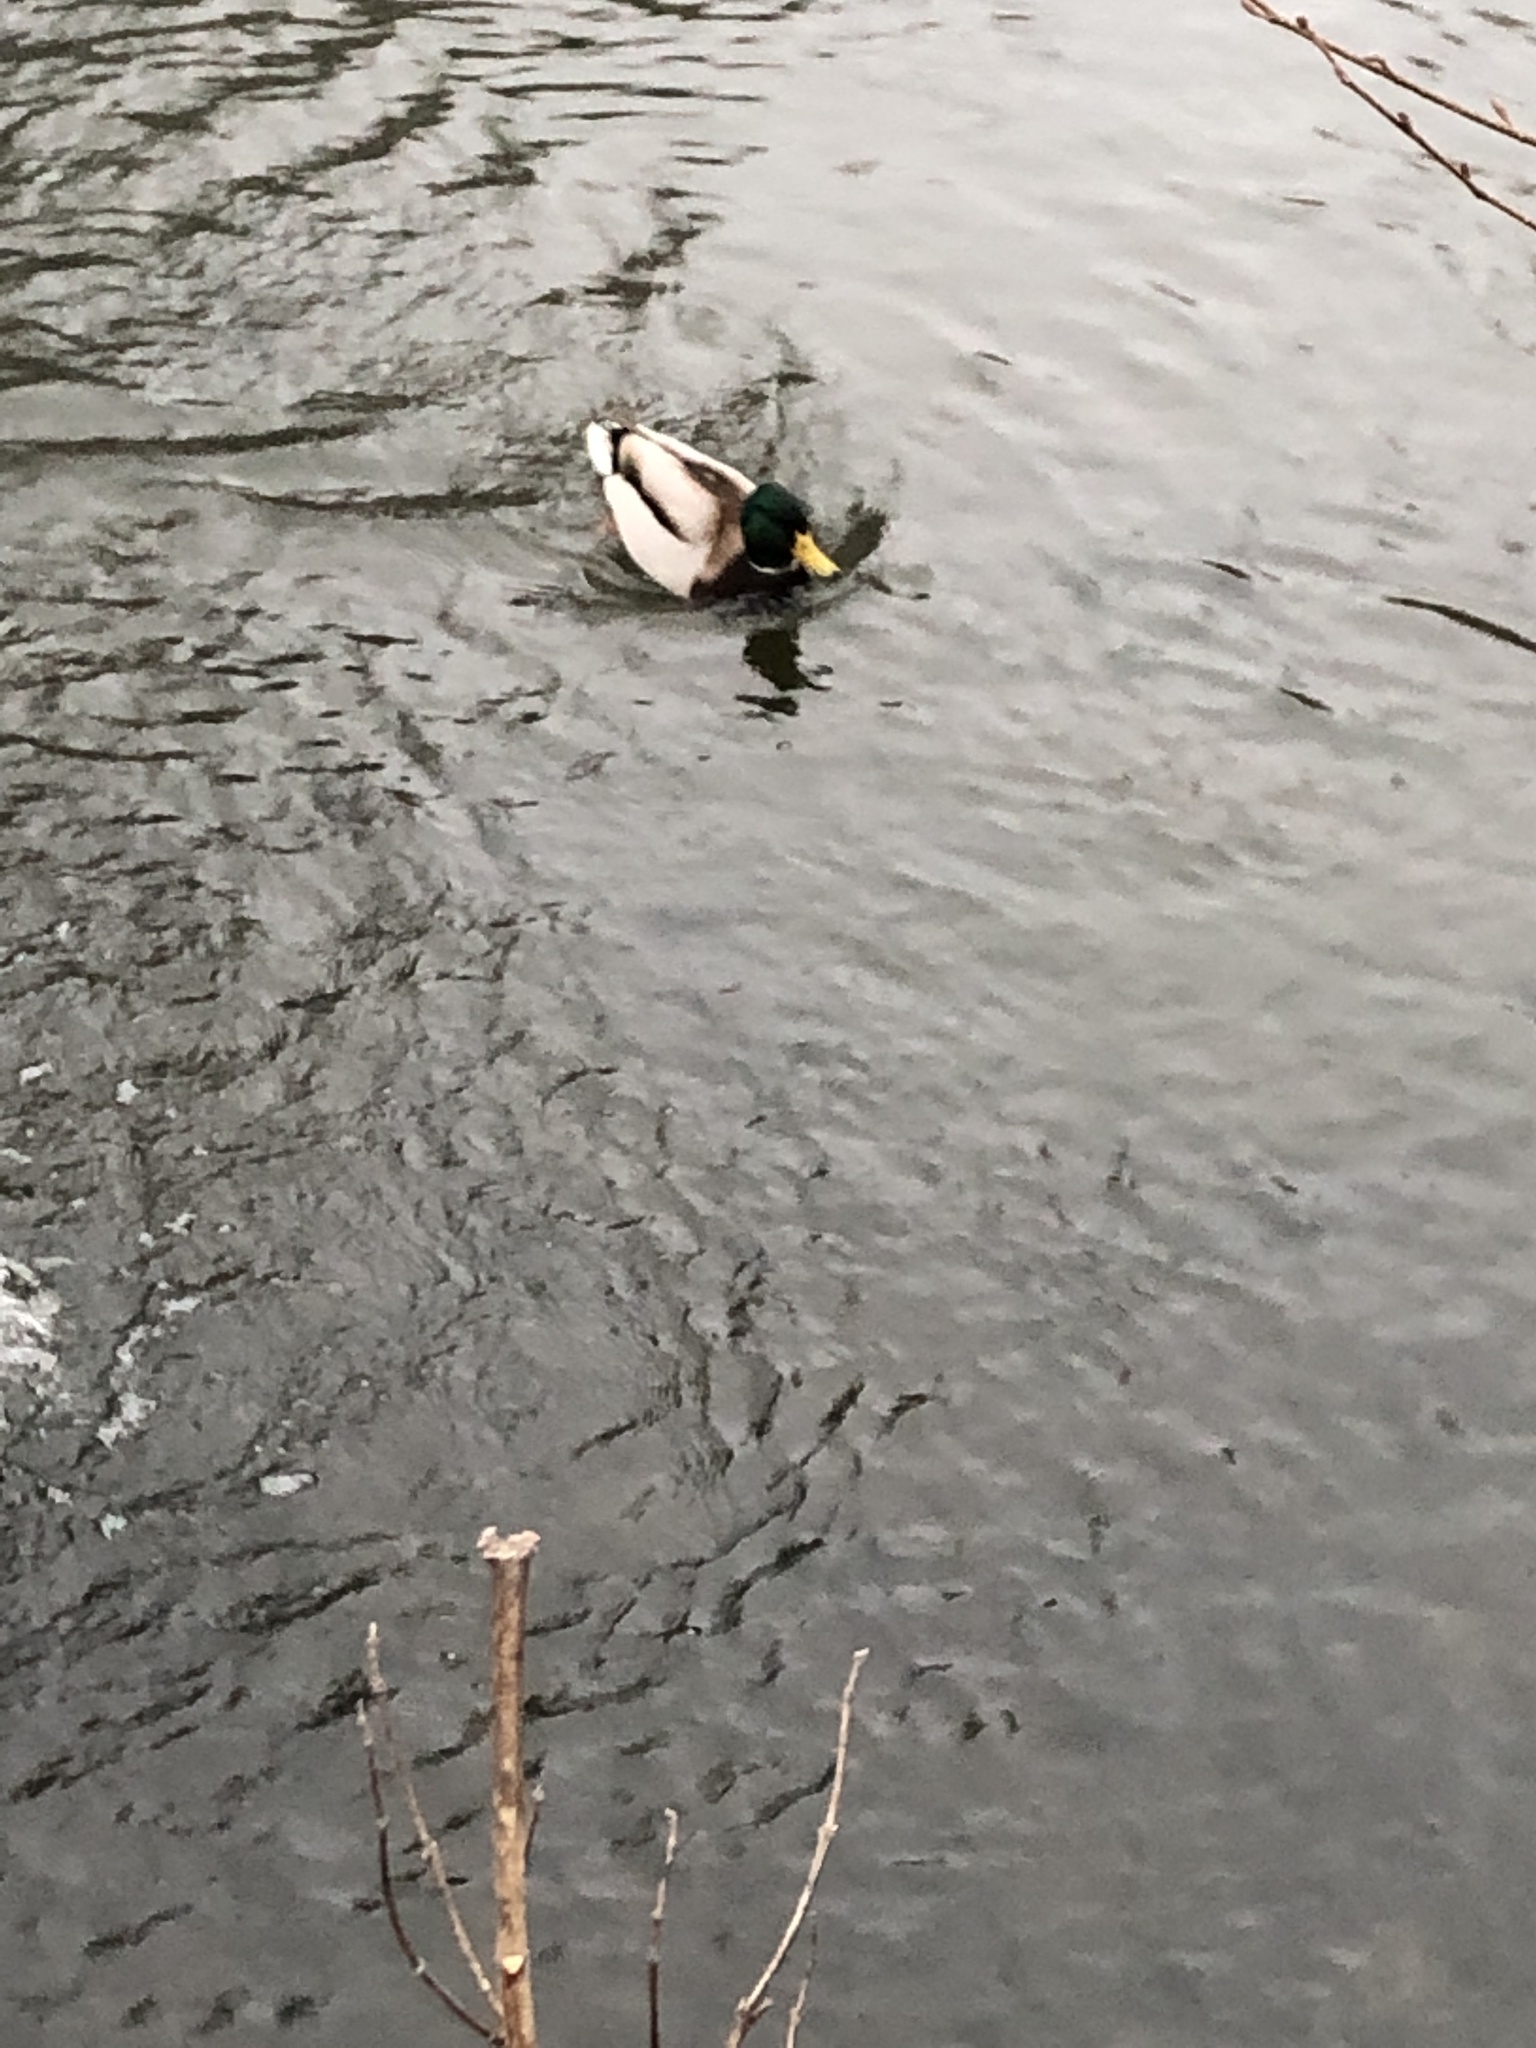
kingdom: Animalia
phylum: Chordata
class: Aves
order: Anseriformes
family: Anatidae
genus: Anas
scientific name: Anas platyrhynchos
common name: Mallard
